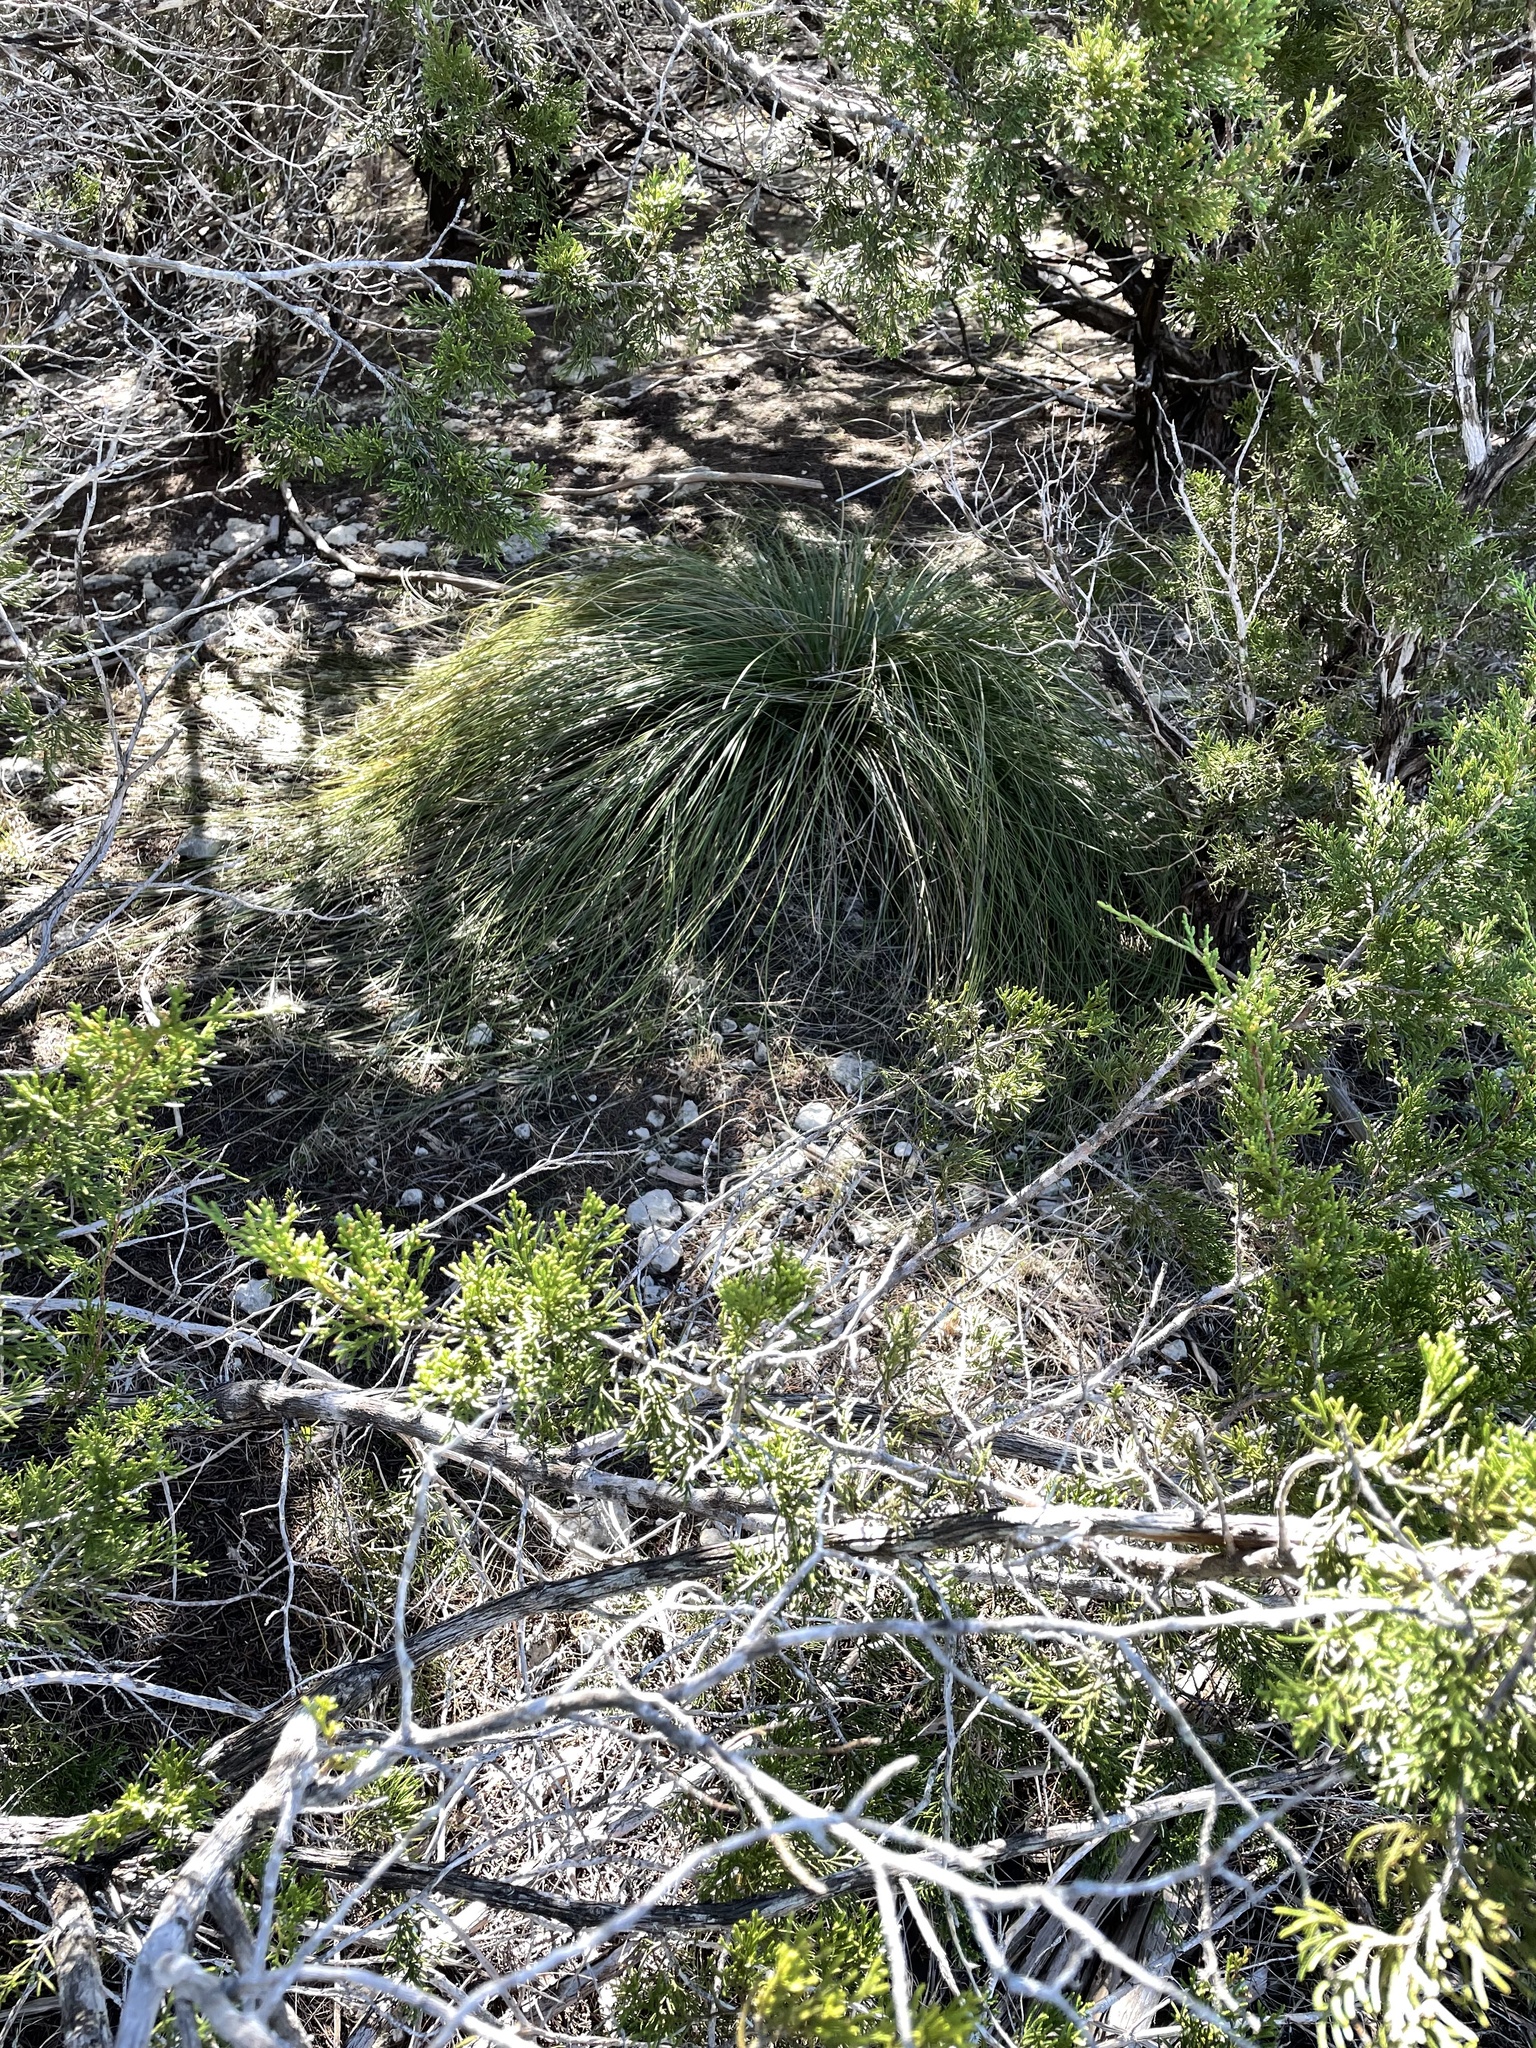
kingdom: Plantae
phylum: Tracheophyta
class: Liliopsida
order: Asparagales
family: Asparagaceae
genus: Nolina
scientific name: Nolina texana
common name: Texas sacahuiste
